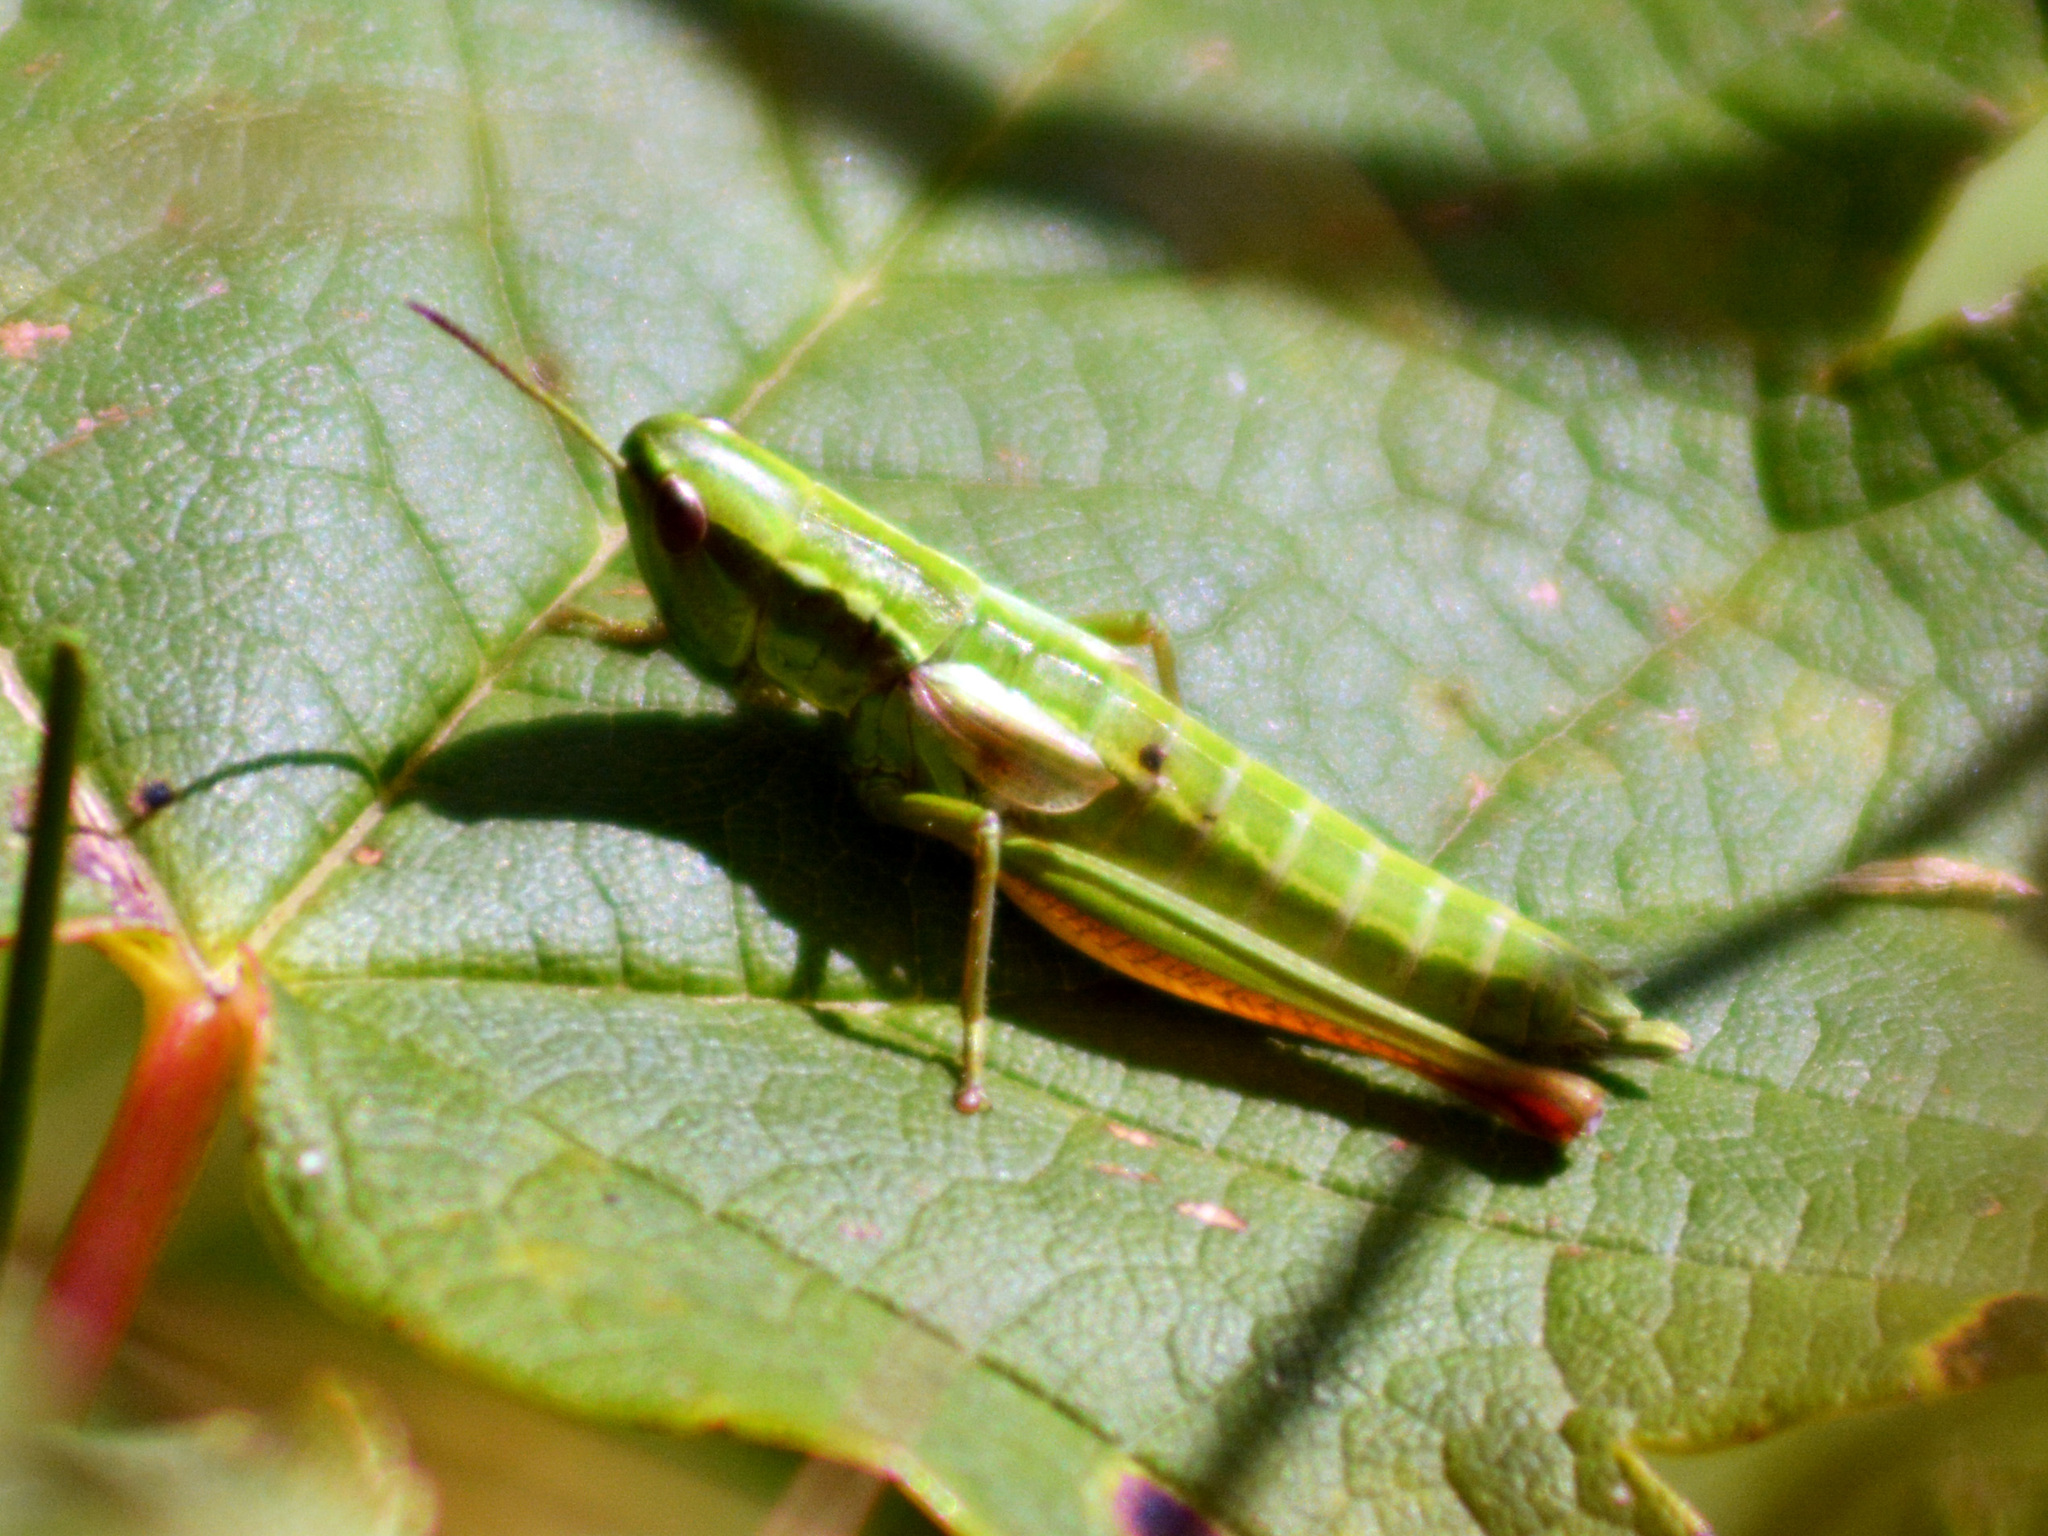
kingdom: Animalia
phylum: Arthropoda
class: Insecta
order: Orthoptera
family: Acrididae
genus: Euthystira
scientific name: Euthystira brachyptera
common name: Small gold grasshopper
